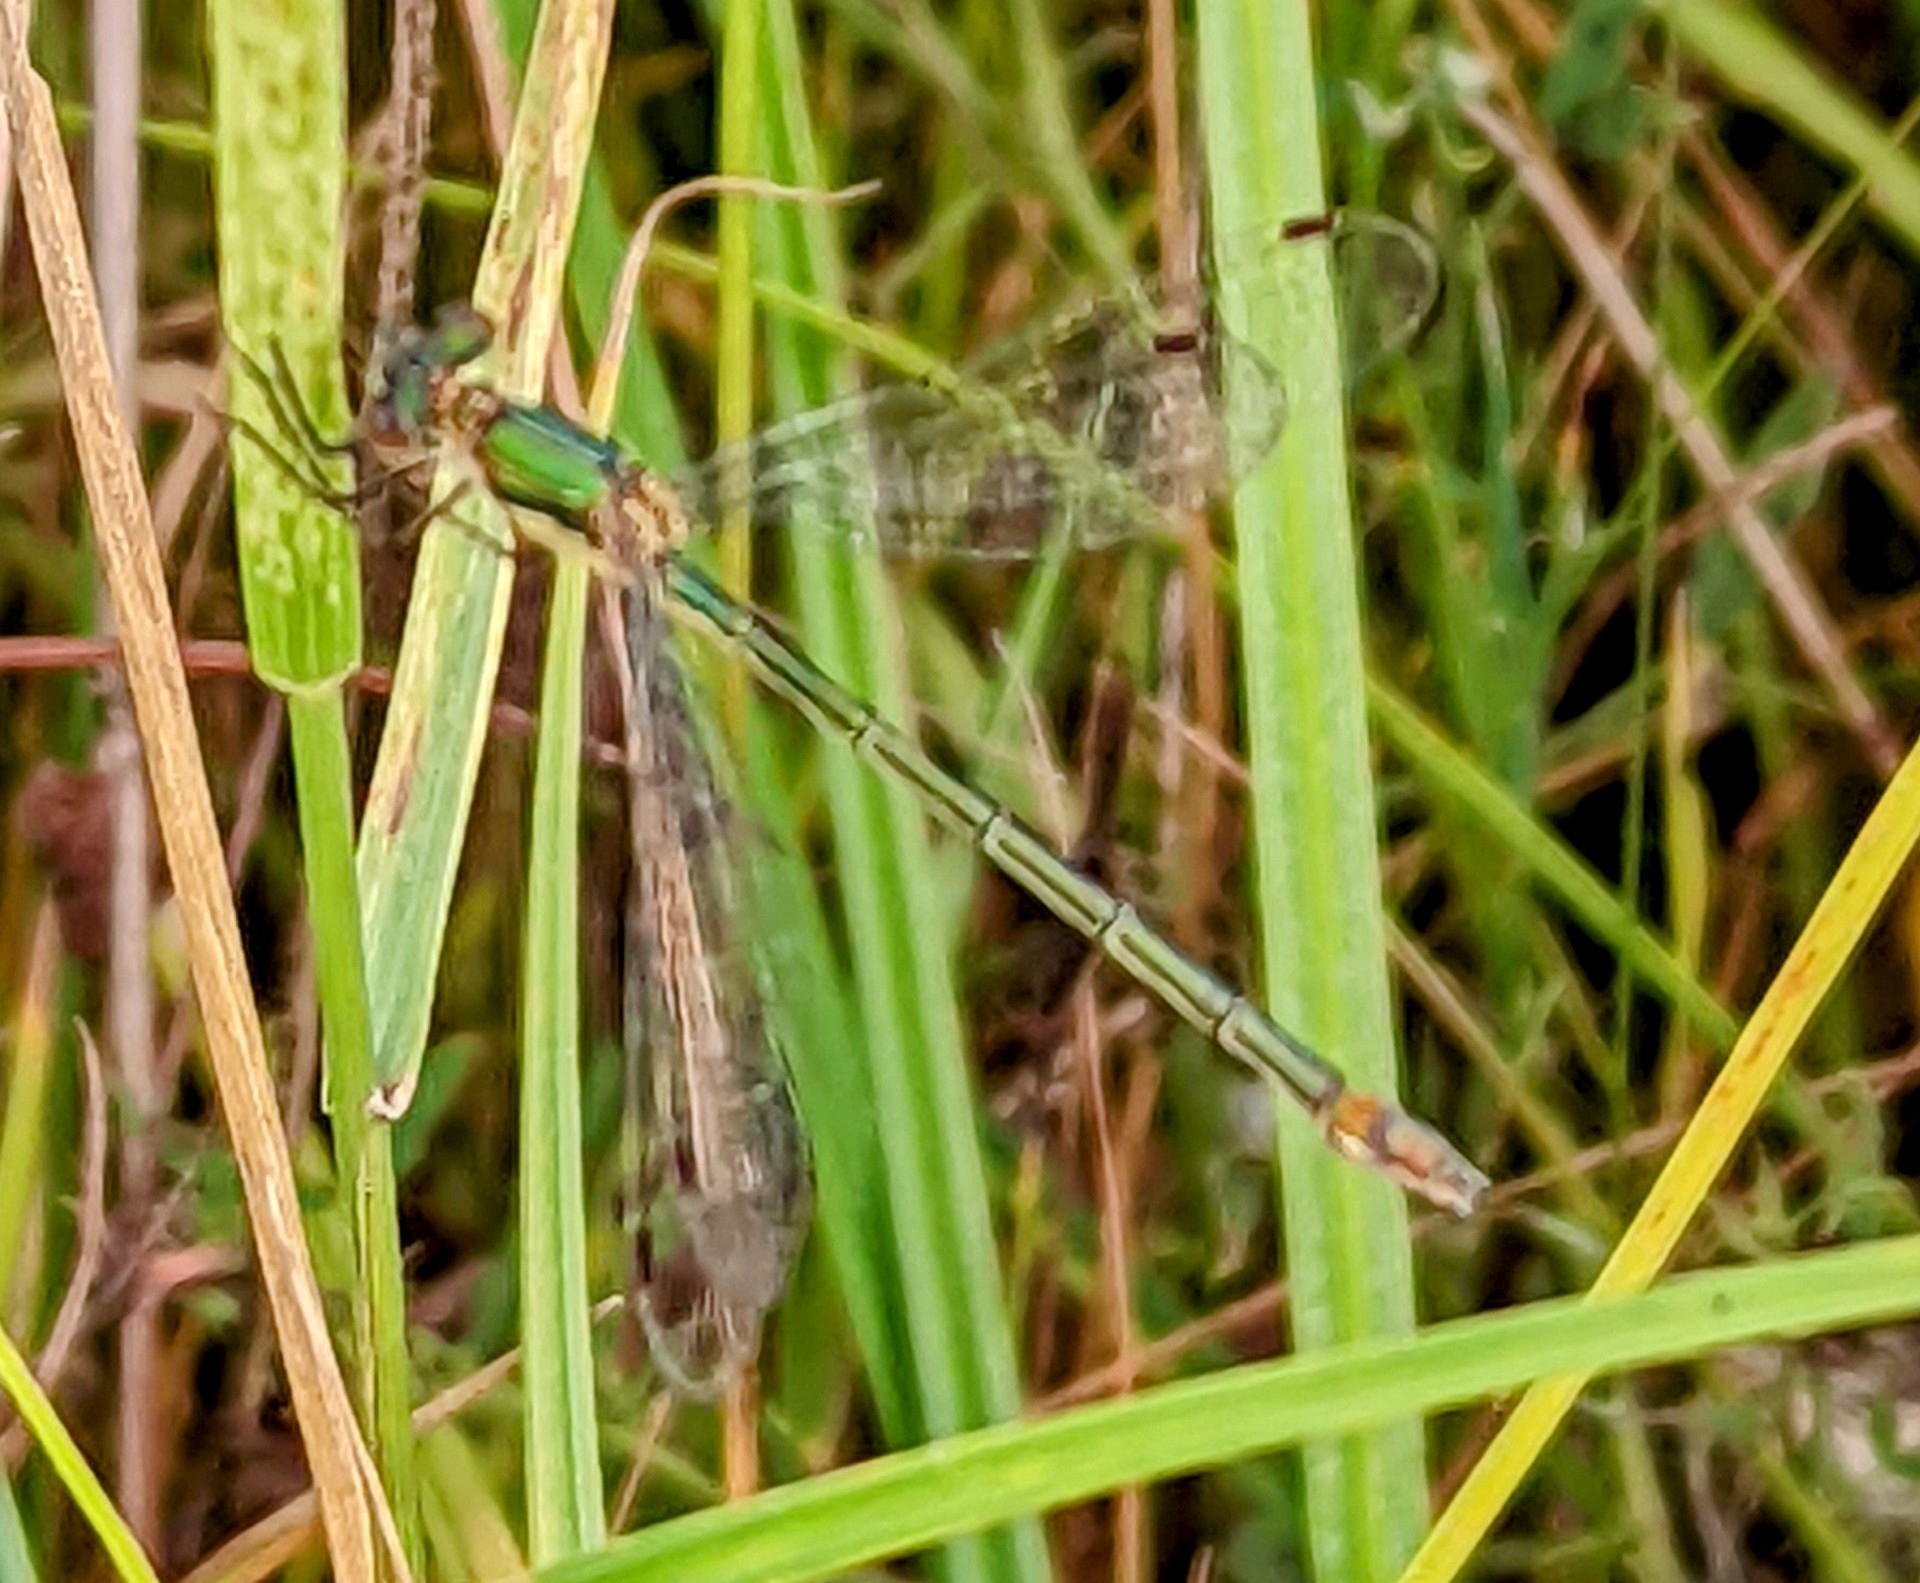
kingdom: Animalia
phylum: Arthropoda
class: Insecta
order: Odonata
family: Lestidae
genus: Lestes
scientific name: Lestes sponsa
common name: Common spreadwing
